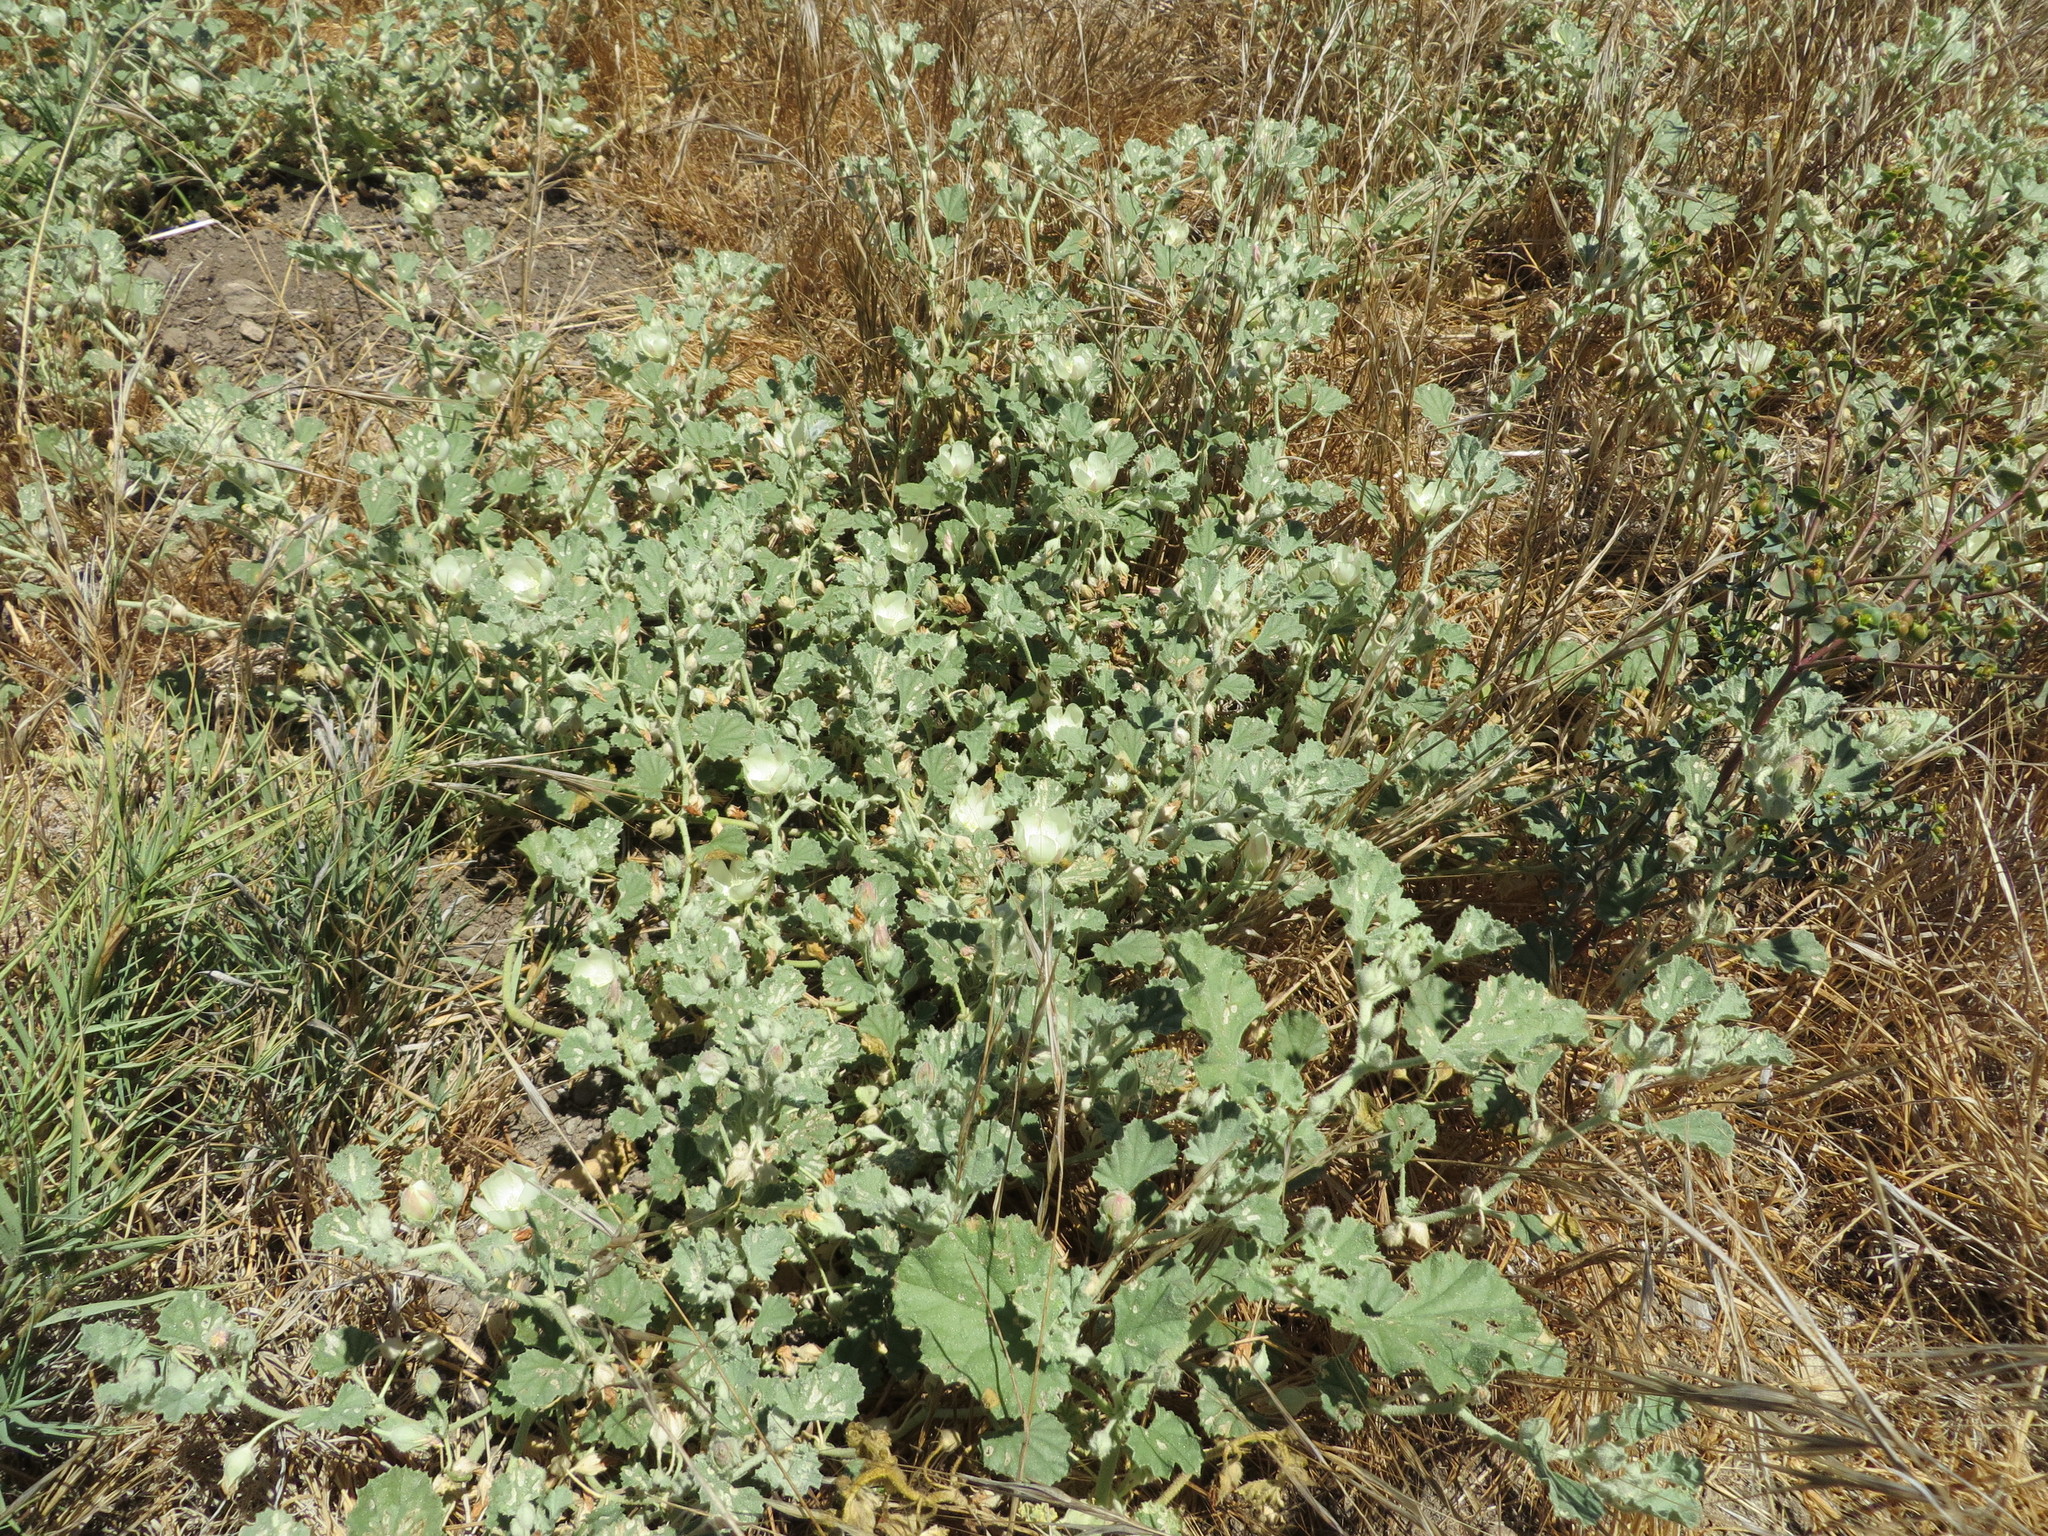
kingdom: Plantae
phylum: Tracheophyta
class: Magnoliopsida
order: Malvales
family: Malvaceae
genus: Malvella
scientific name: Malvella leprosa
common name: Alkali-mallow
